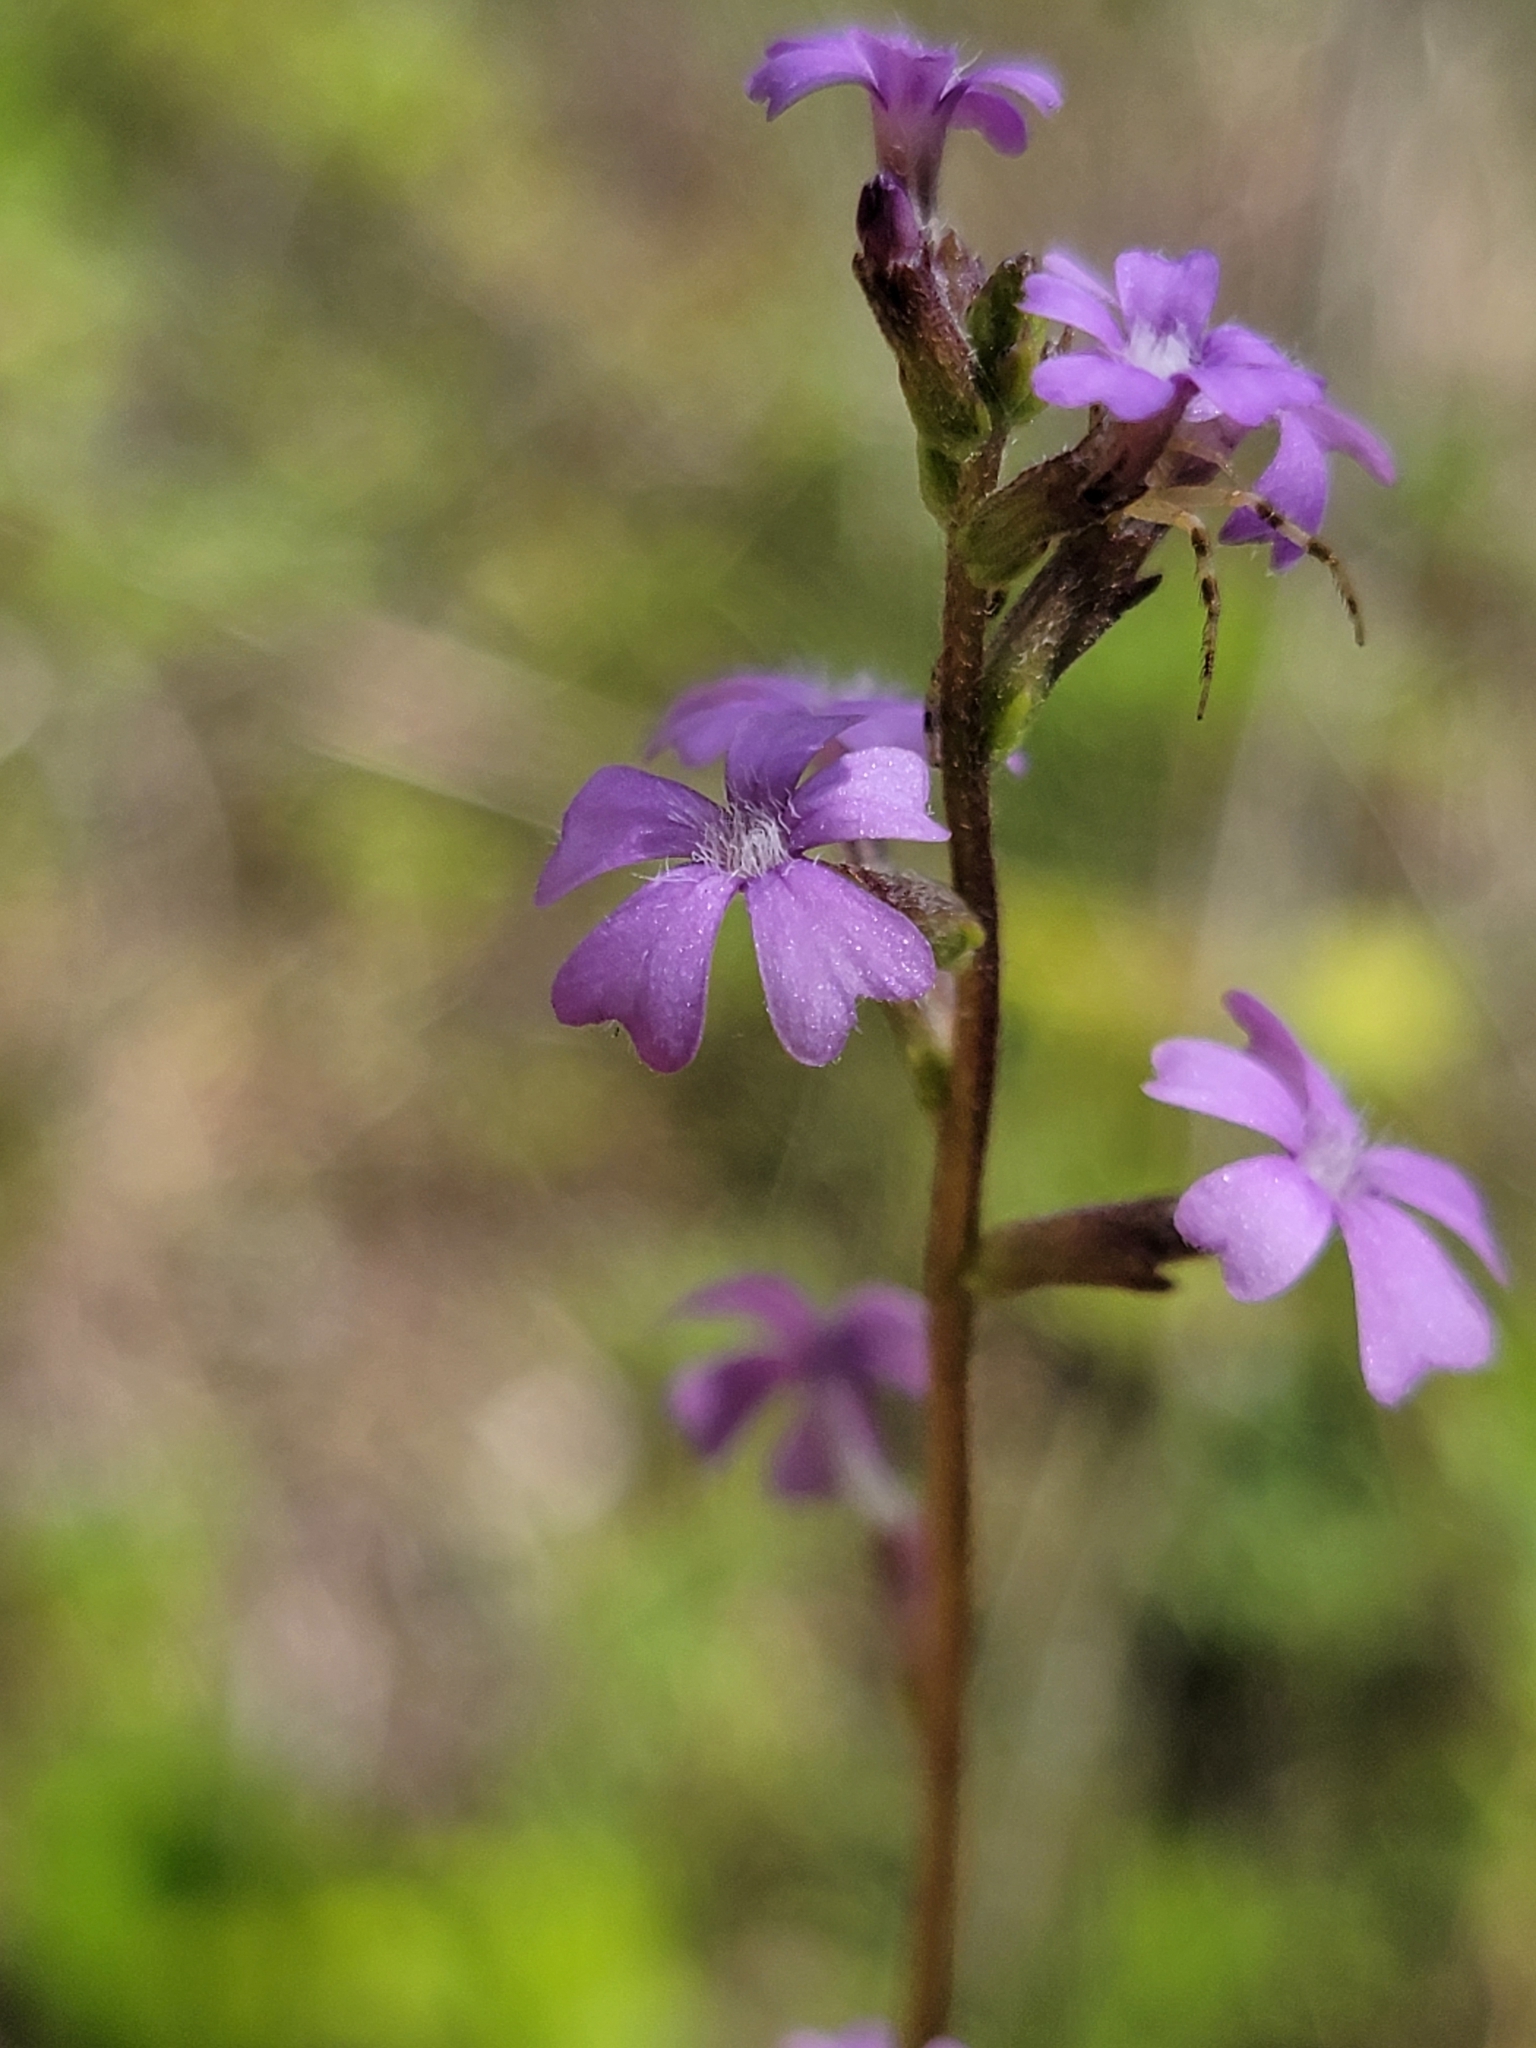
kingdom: Plantae
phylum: Tracheophyta
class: Magnoliopsida
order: Lamiales
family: Orobanchaceae
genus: Buchnera
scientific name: Buchnera floridana
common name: Florida bluehearts
